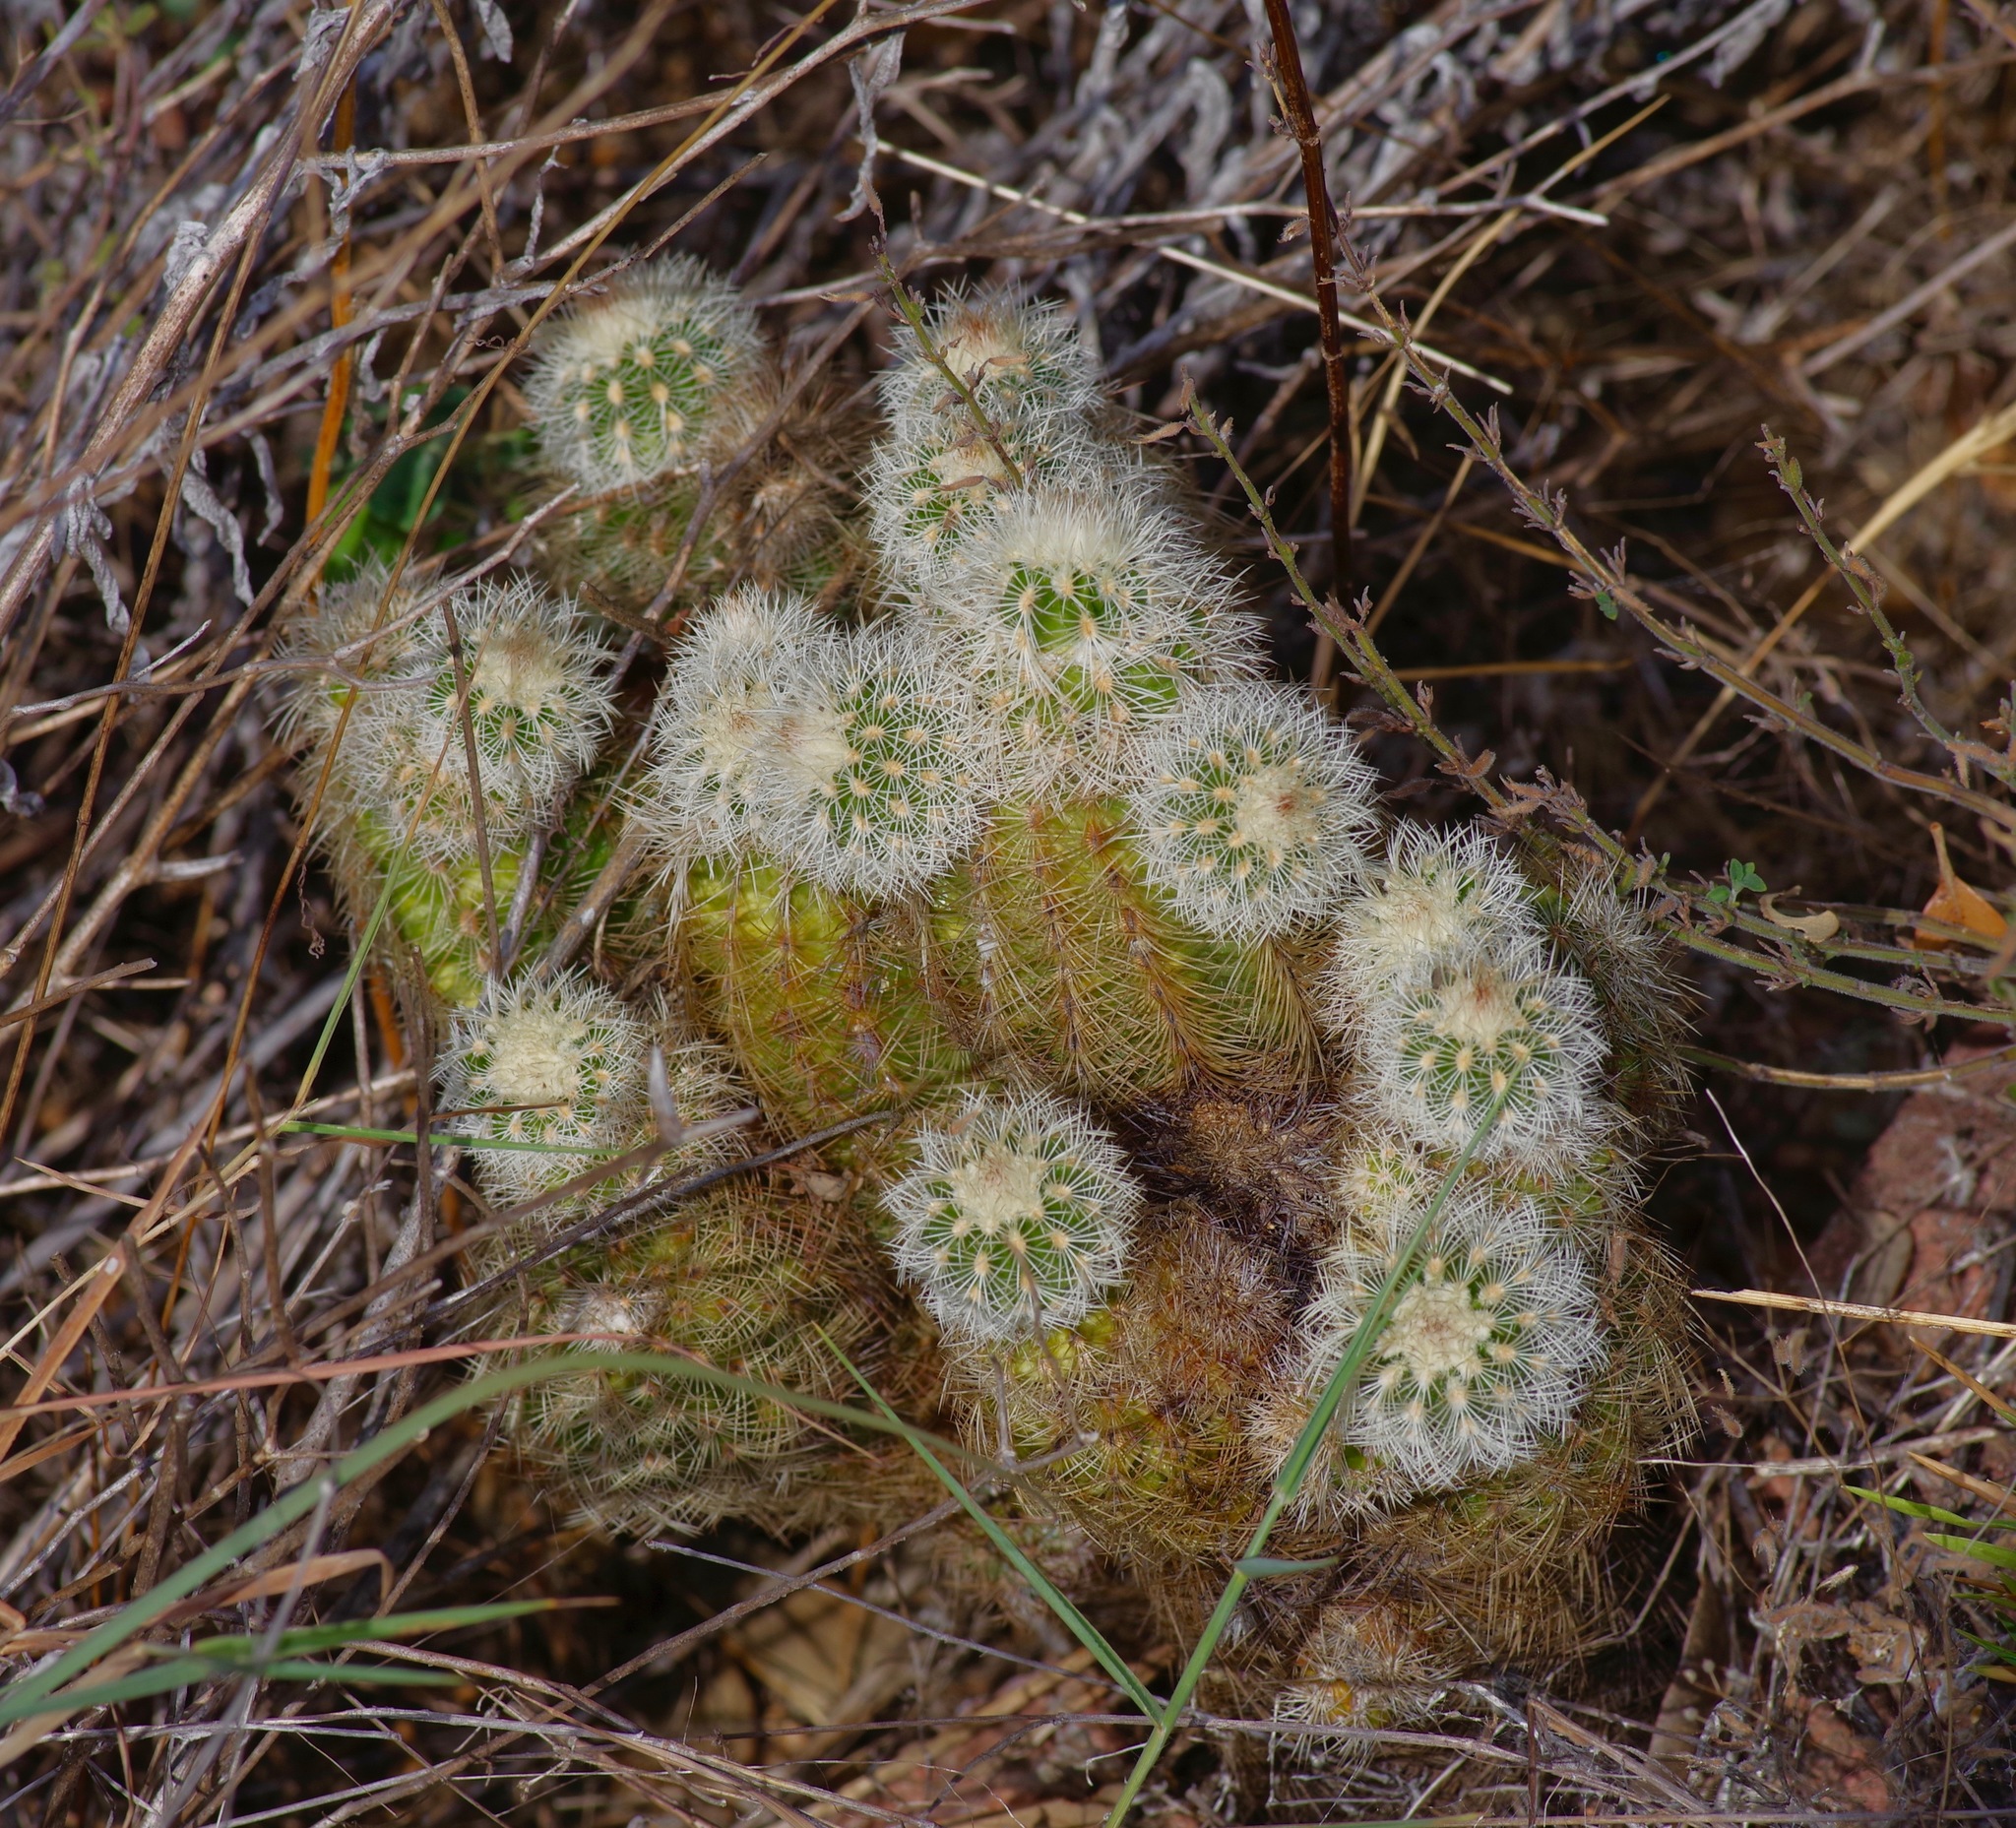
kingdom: Plantae
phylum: Tracheophyta
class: Magnoliopsida
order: Caryophyllales
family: Cactaceae
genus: Echinocereus
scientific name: Echinocereus reichenbachii
